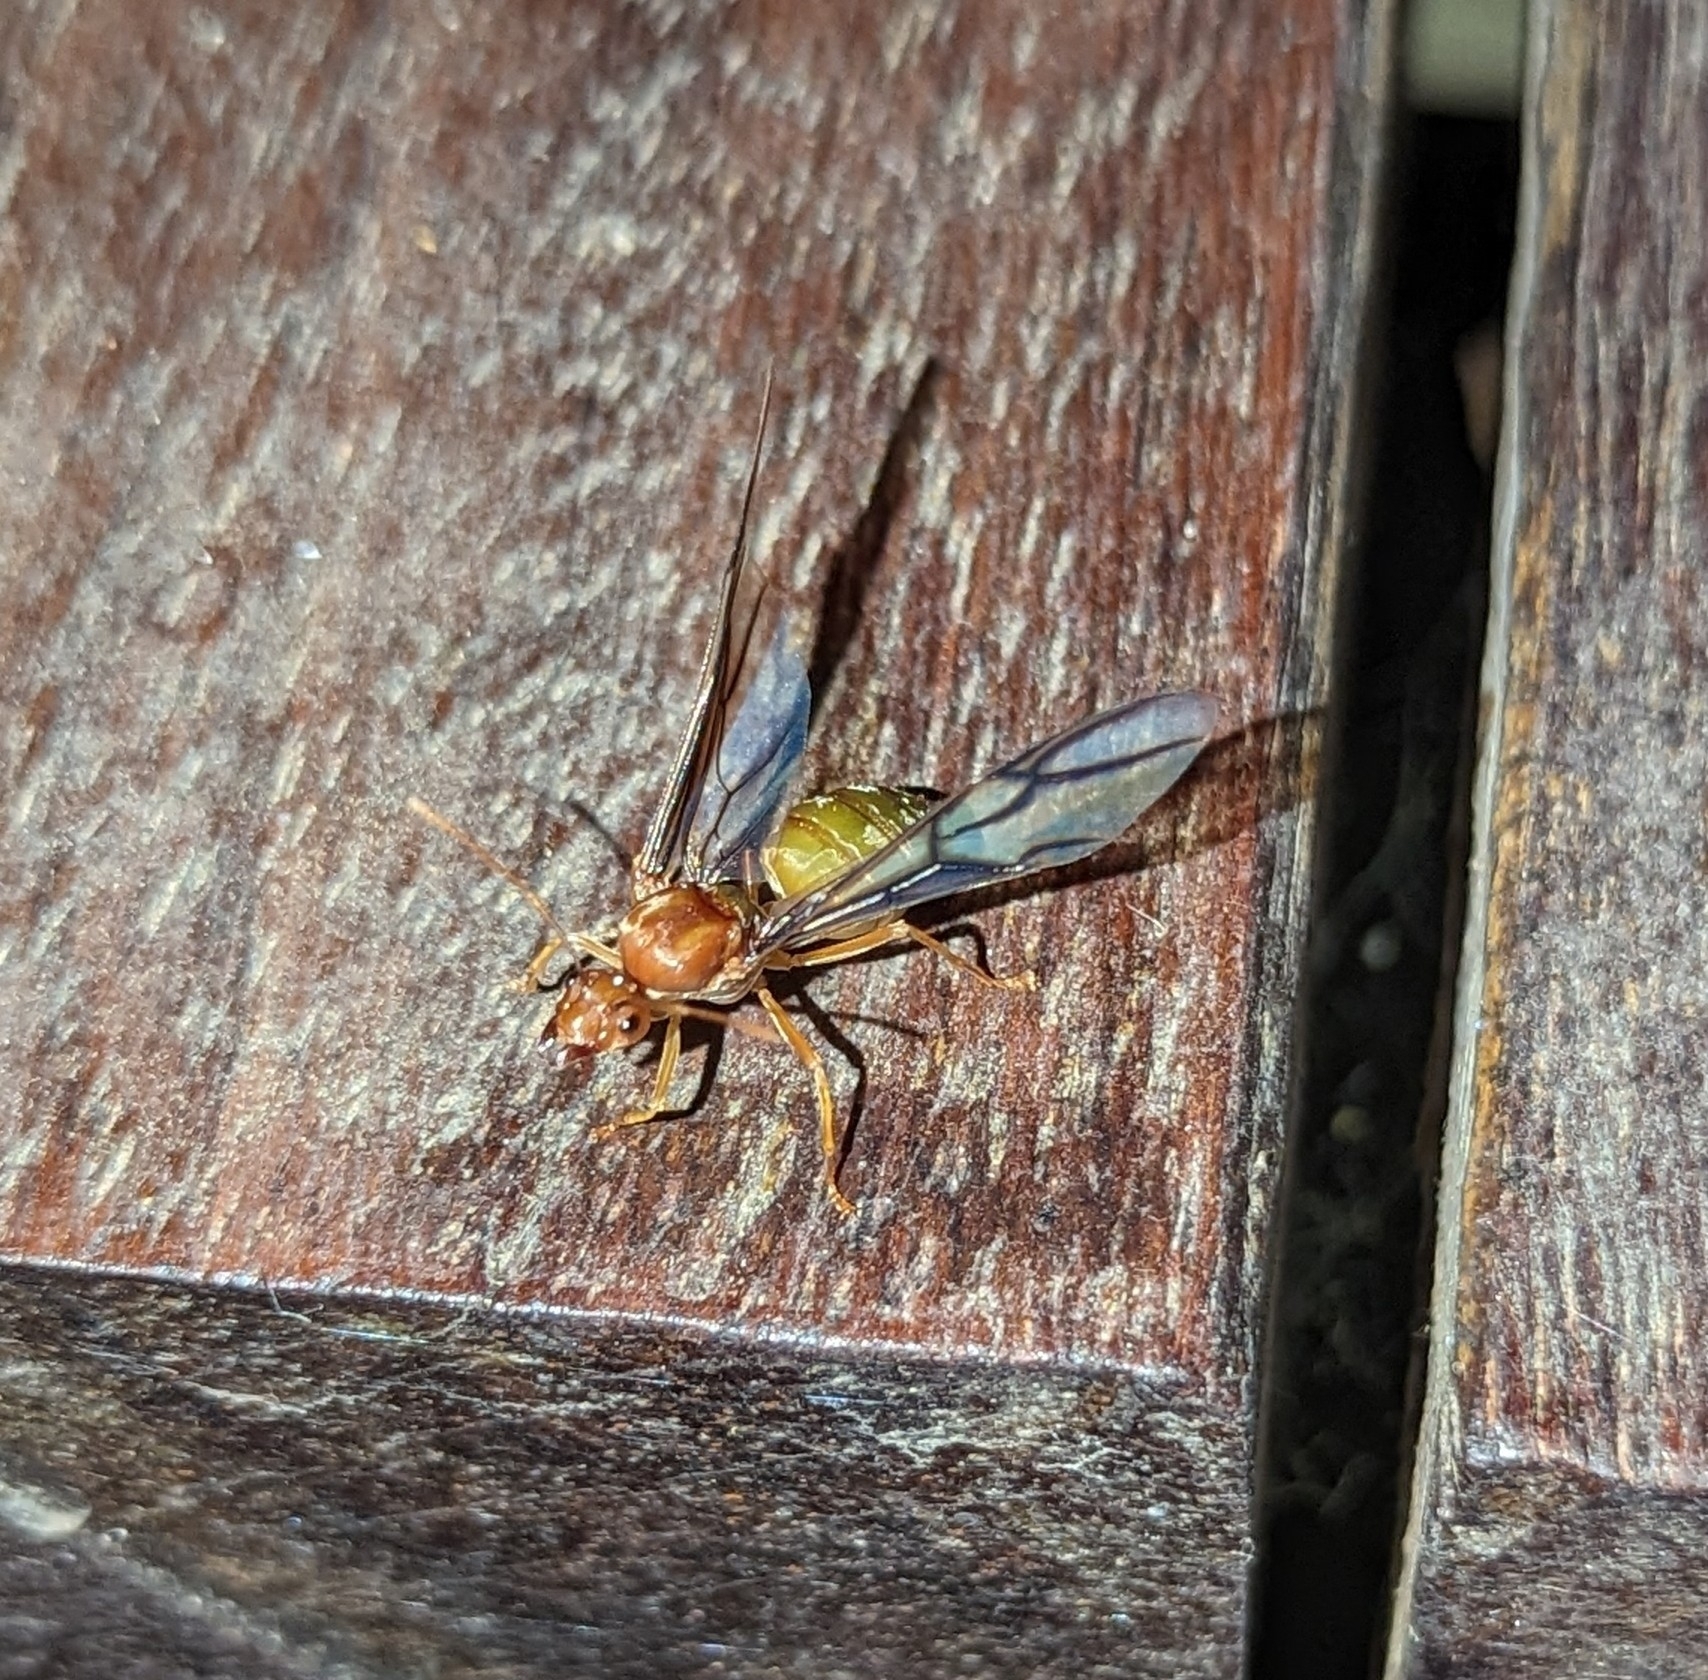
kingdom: Animalia
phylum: Arthropoda
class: Insecta
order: Hymenoptera
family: Formicidae
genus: Oecophylla
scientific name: Oecophylla longinoda
